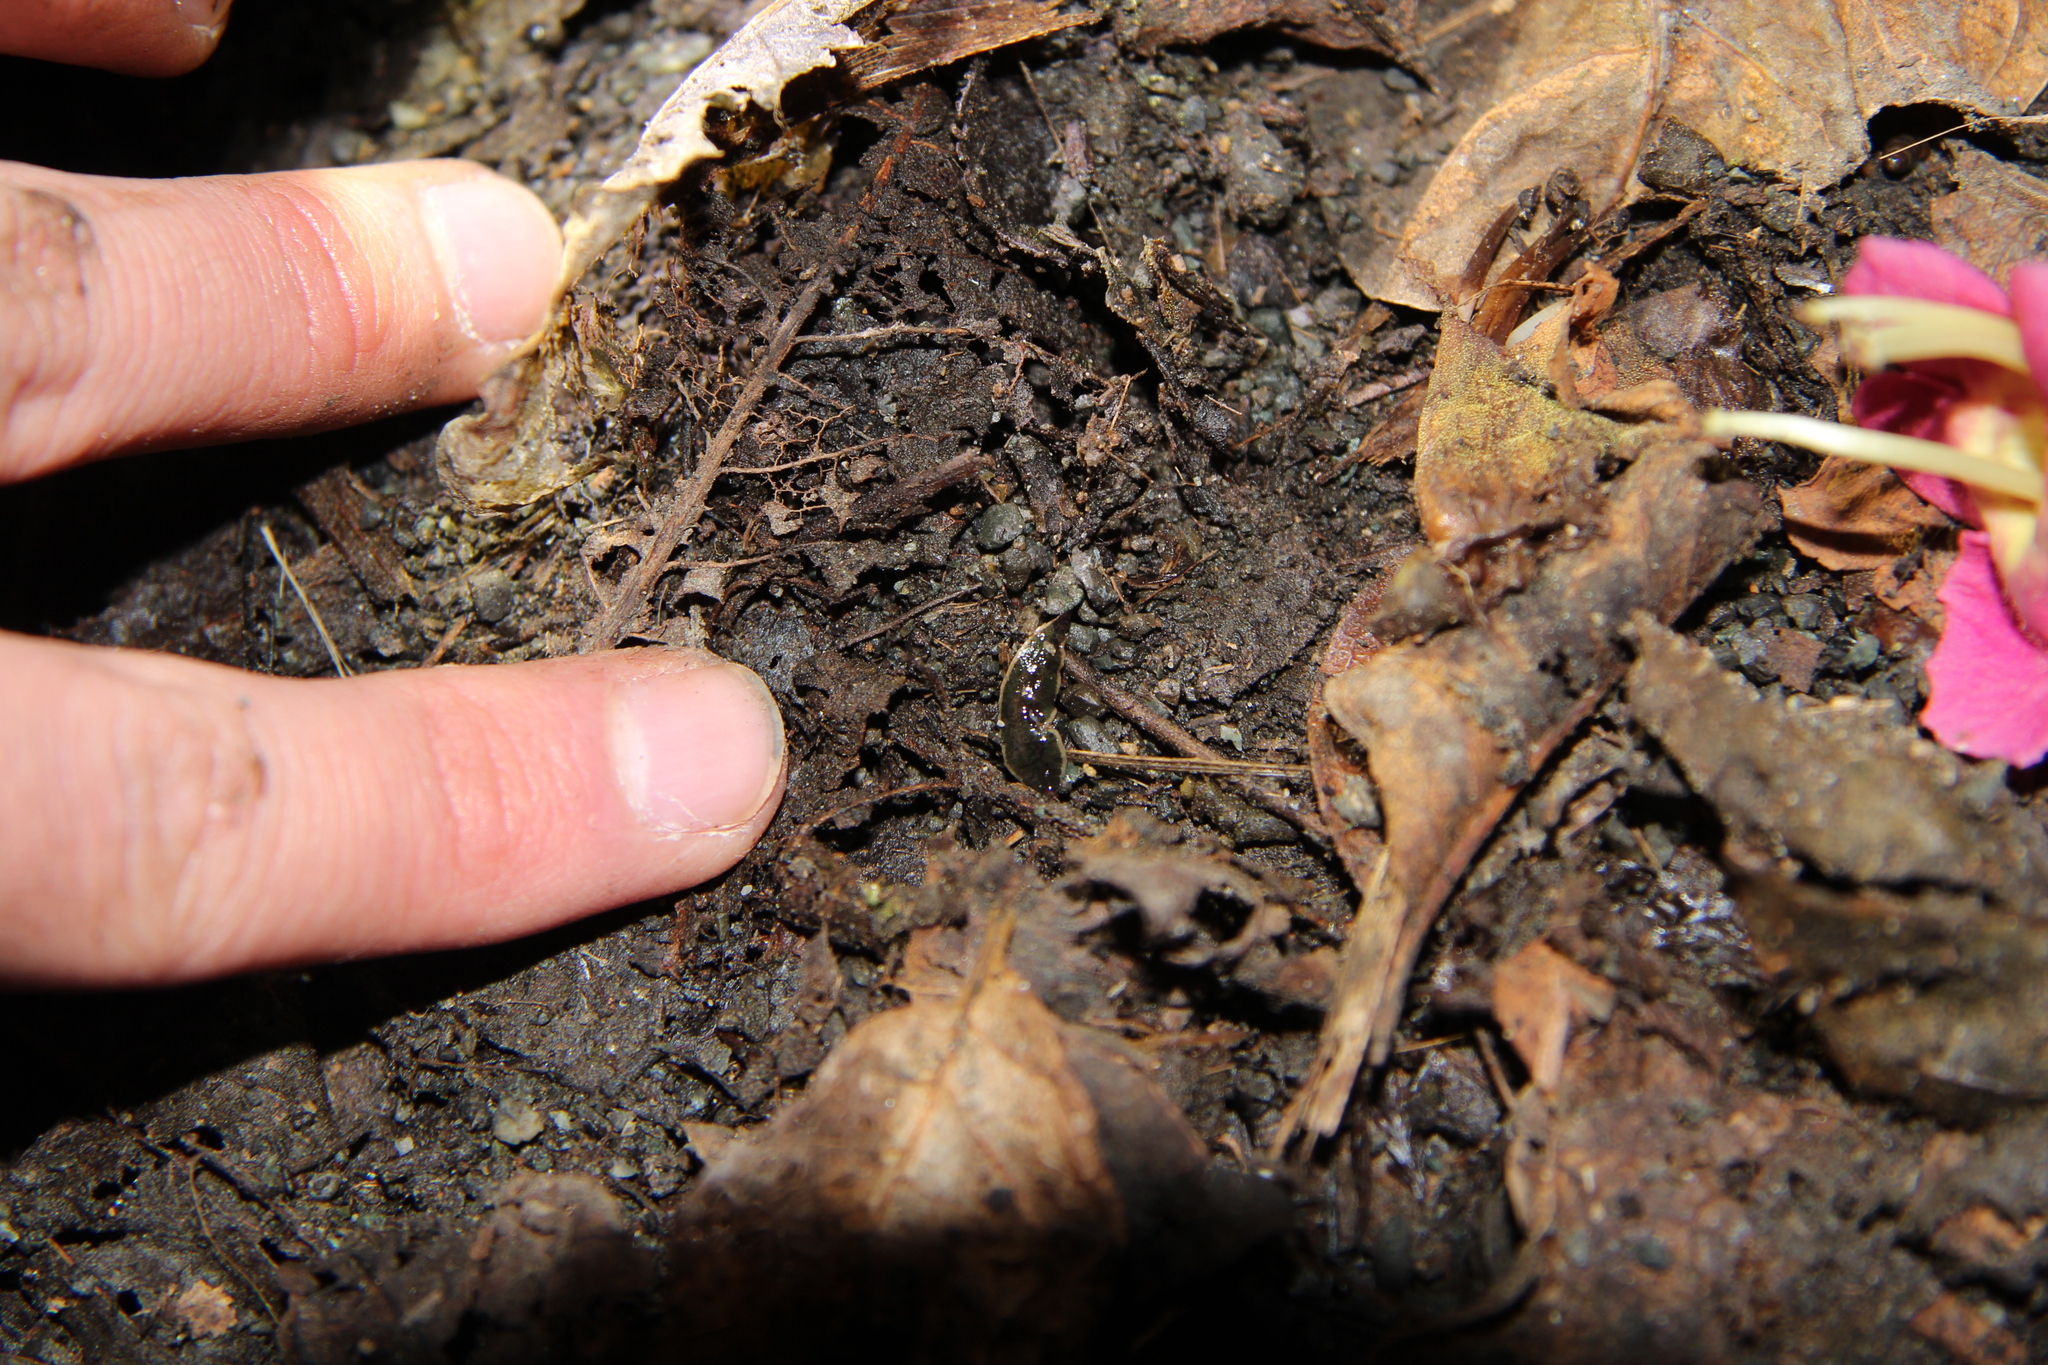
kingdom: Animalia
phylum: Platyhelminthes
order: Tricladida
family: Geoplanidae
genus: Newzealandia
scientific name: Newzealandia graffii
